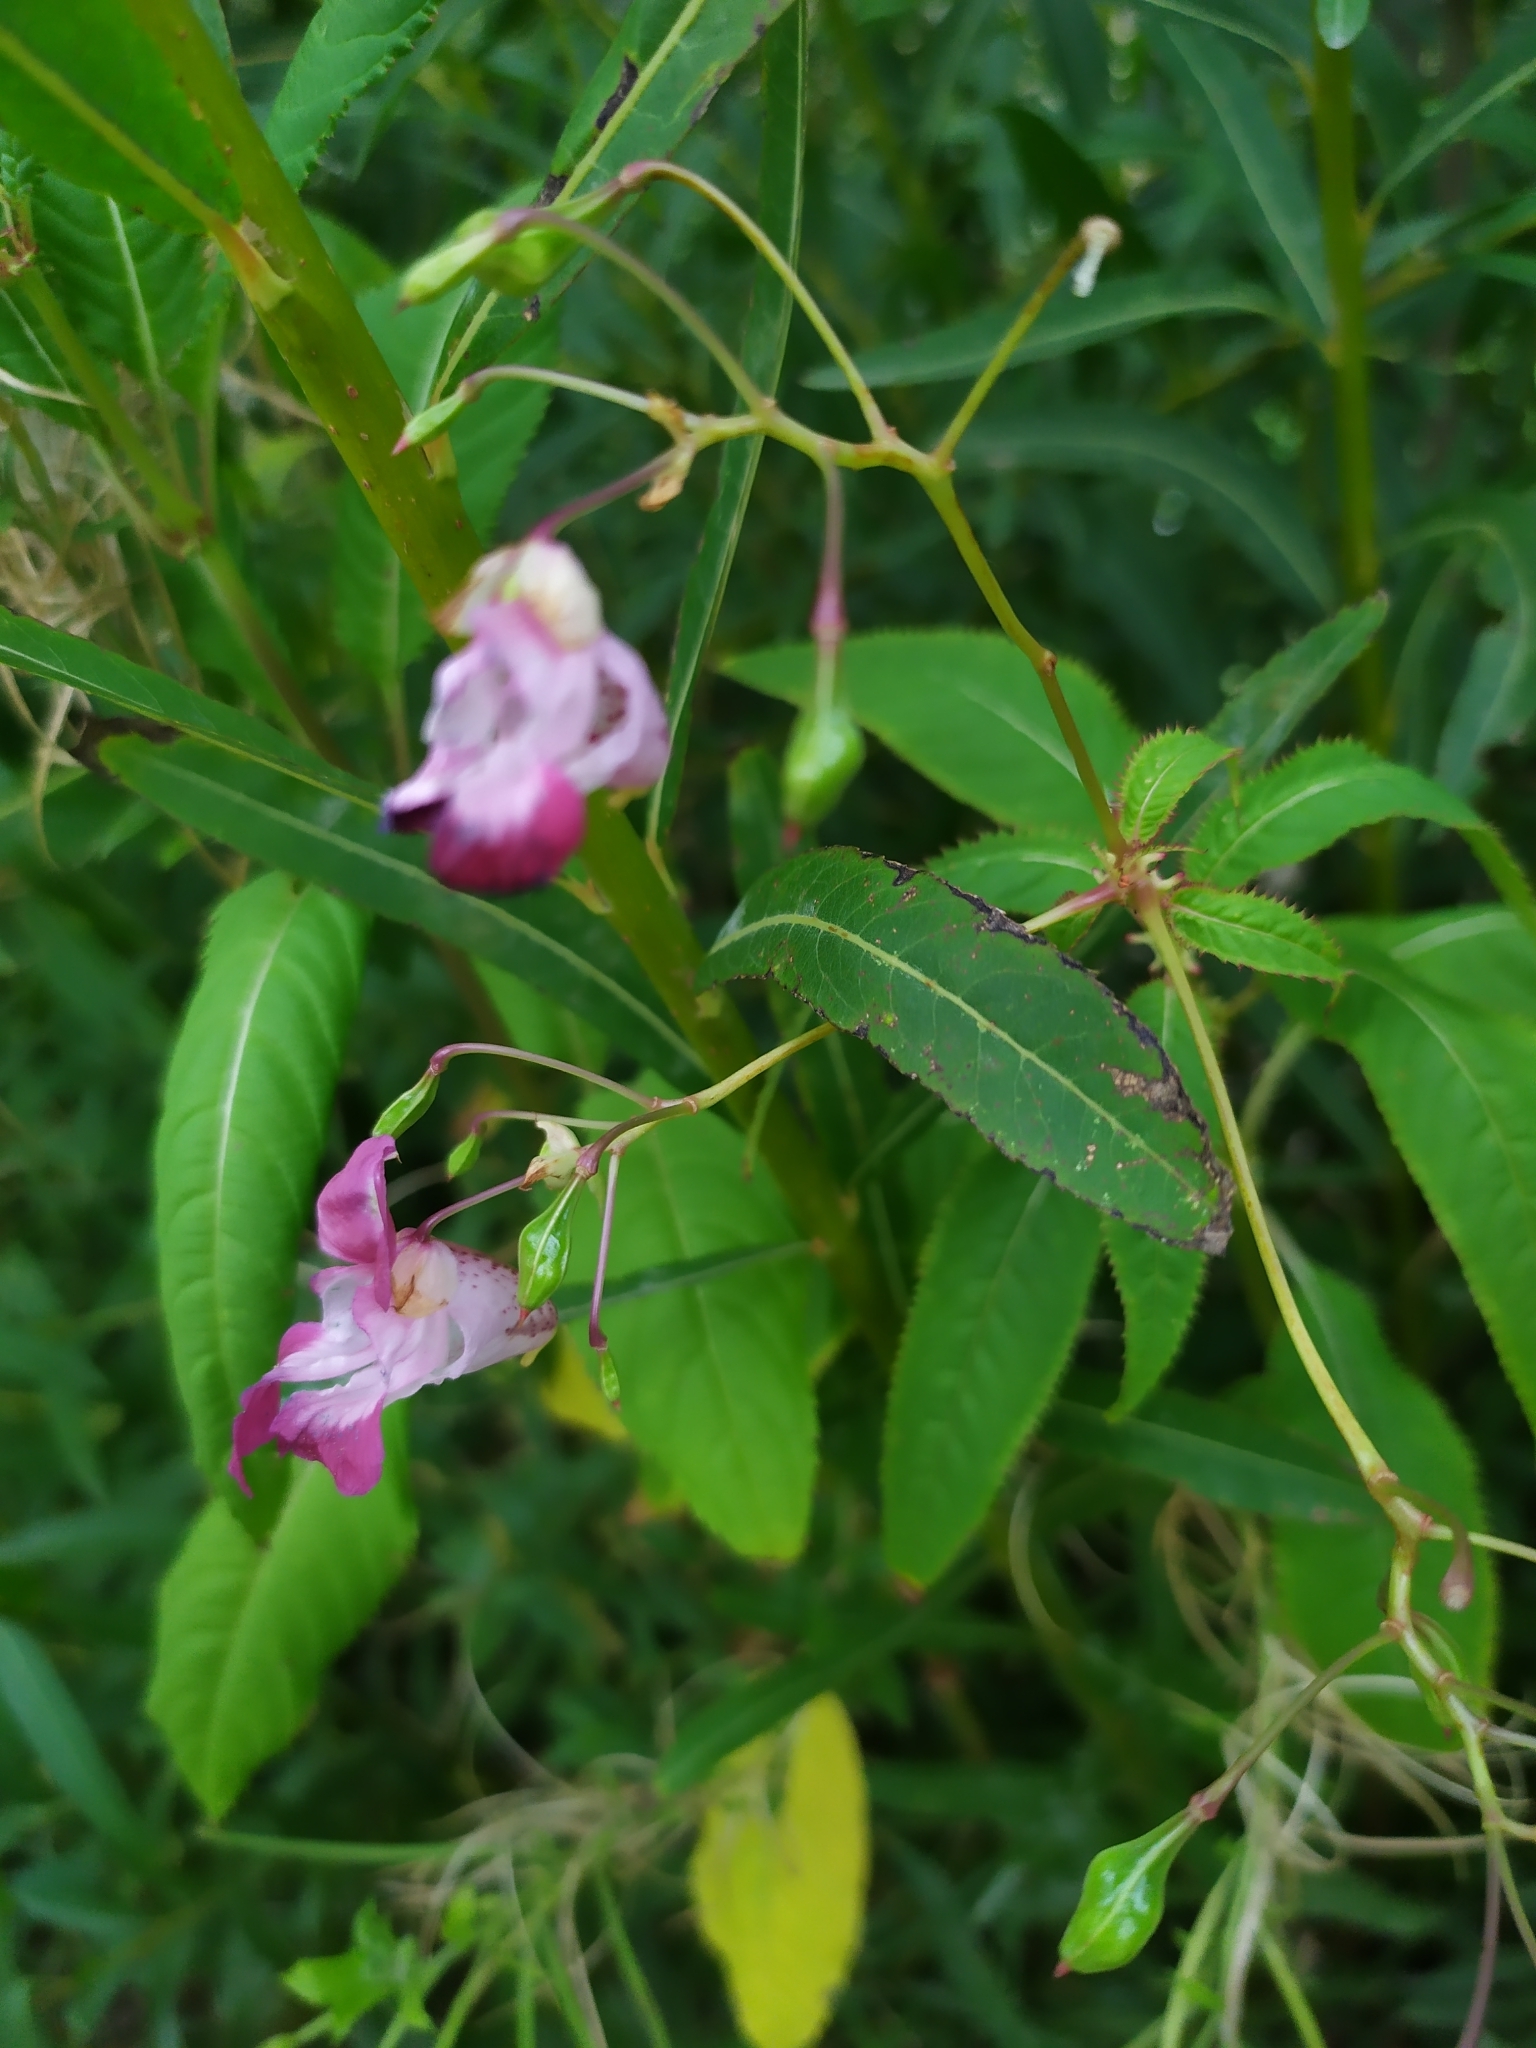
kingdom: Plantae
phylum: Tracheophyta
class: Magnoliopsida
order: Ericales
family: Balsaminaceae
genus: Impatiens
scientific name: Impatiens glandulifera
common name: Himalayan balsam
